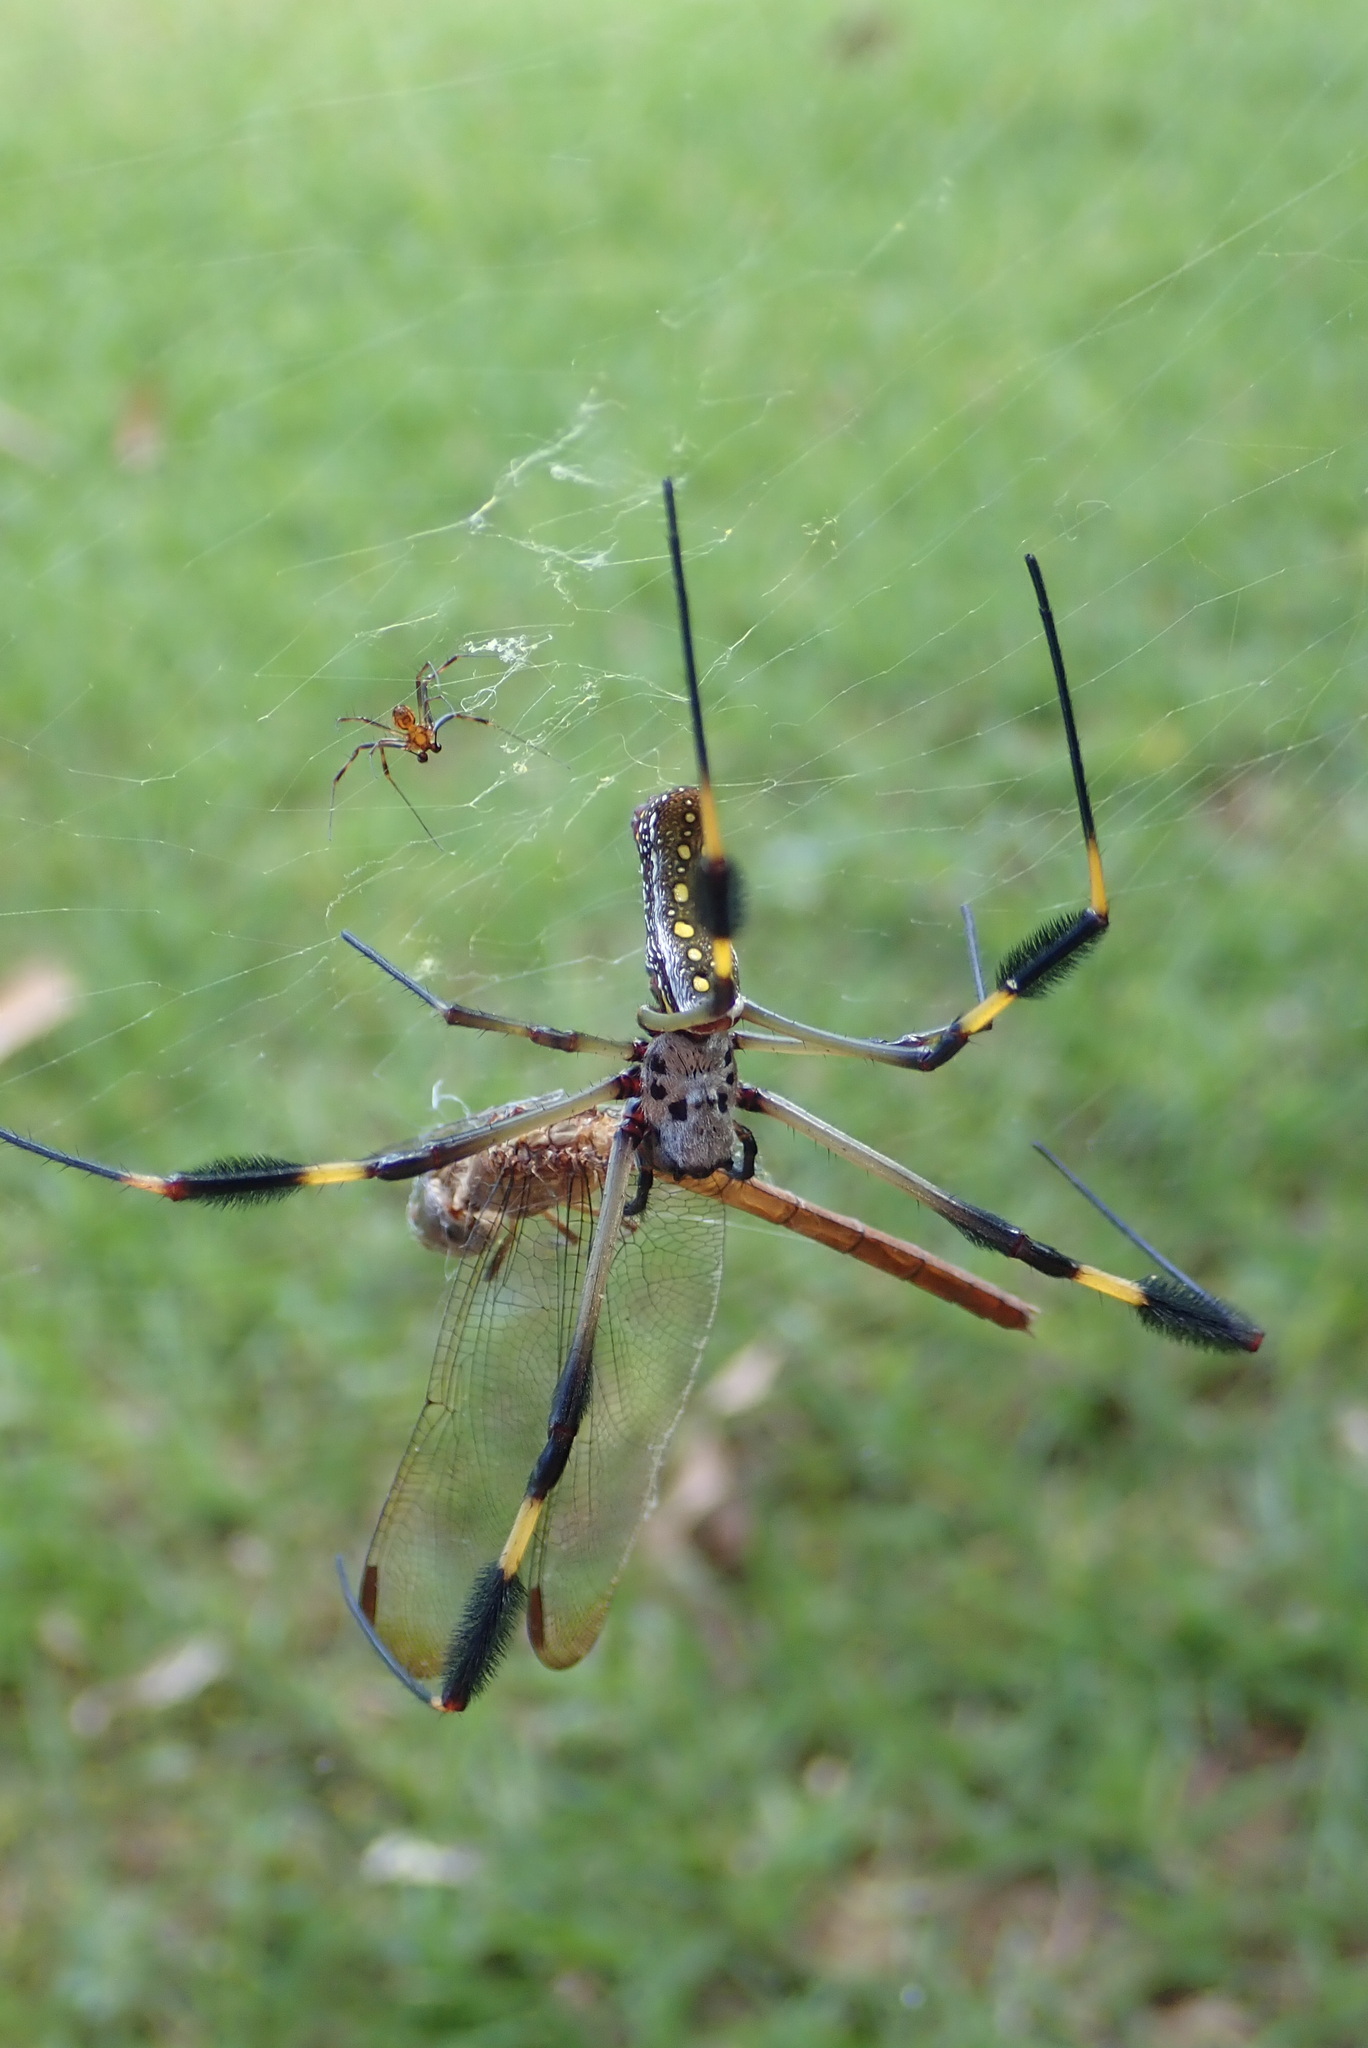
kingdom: Animalia
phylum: Arthropoda
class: Arachnida
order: Araneae
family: Araneidae
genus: Trichonephila
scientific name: Trichonephila clavipes
